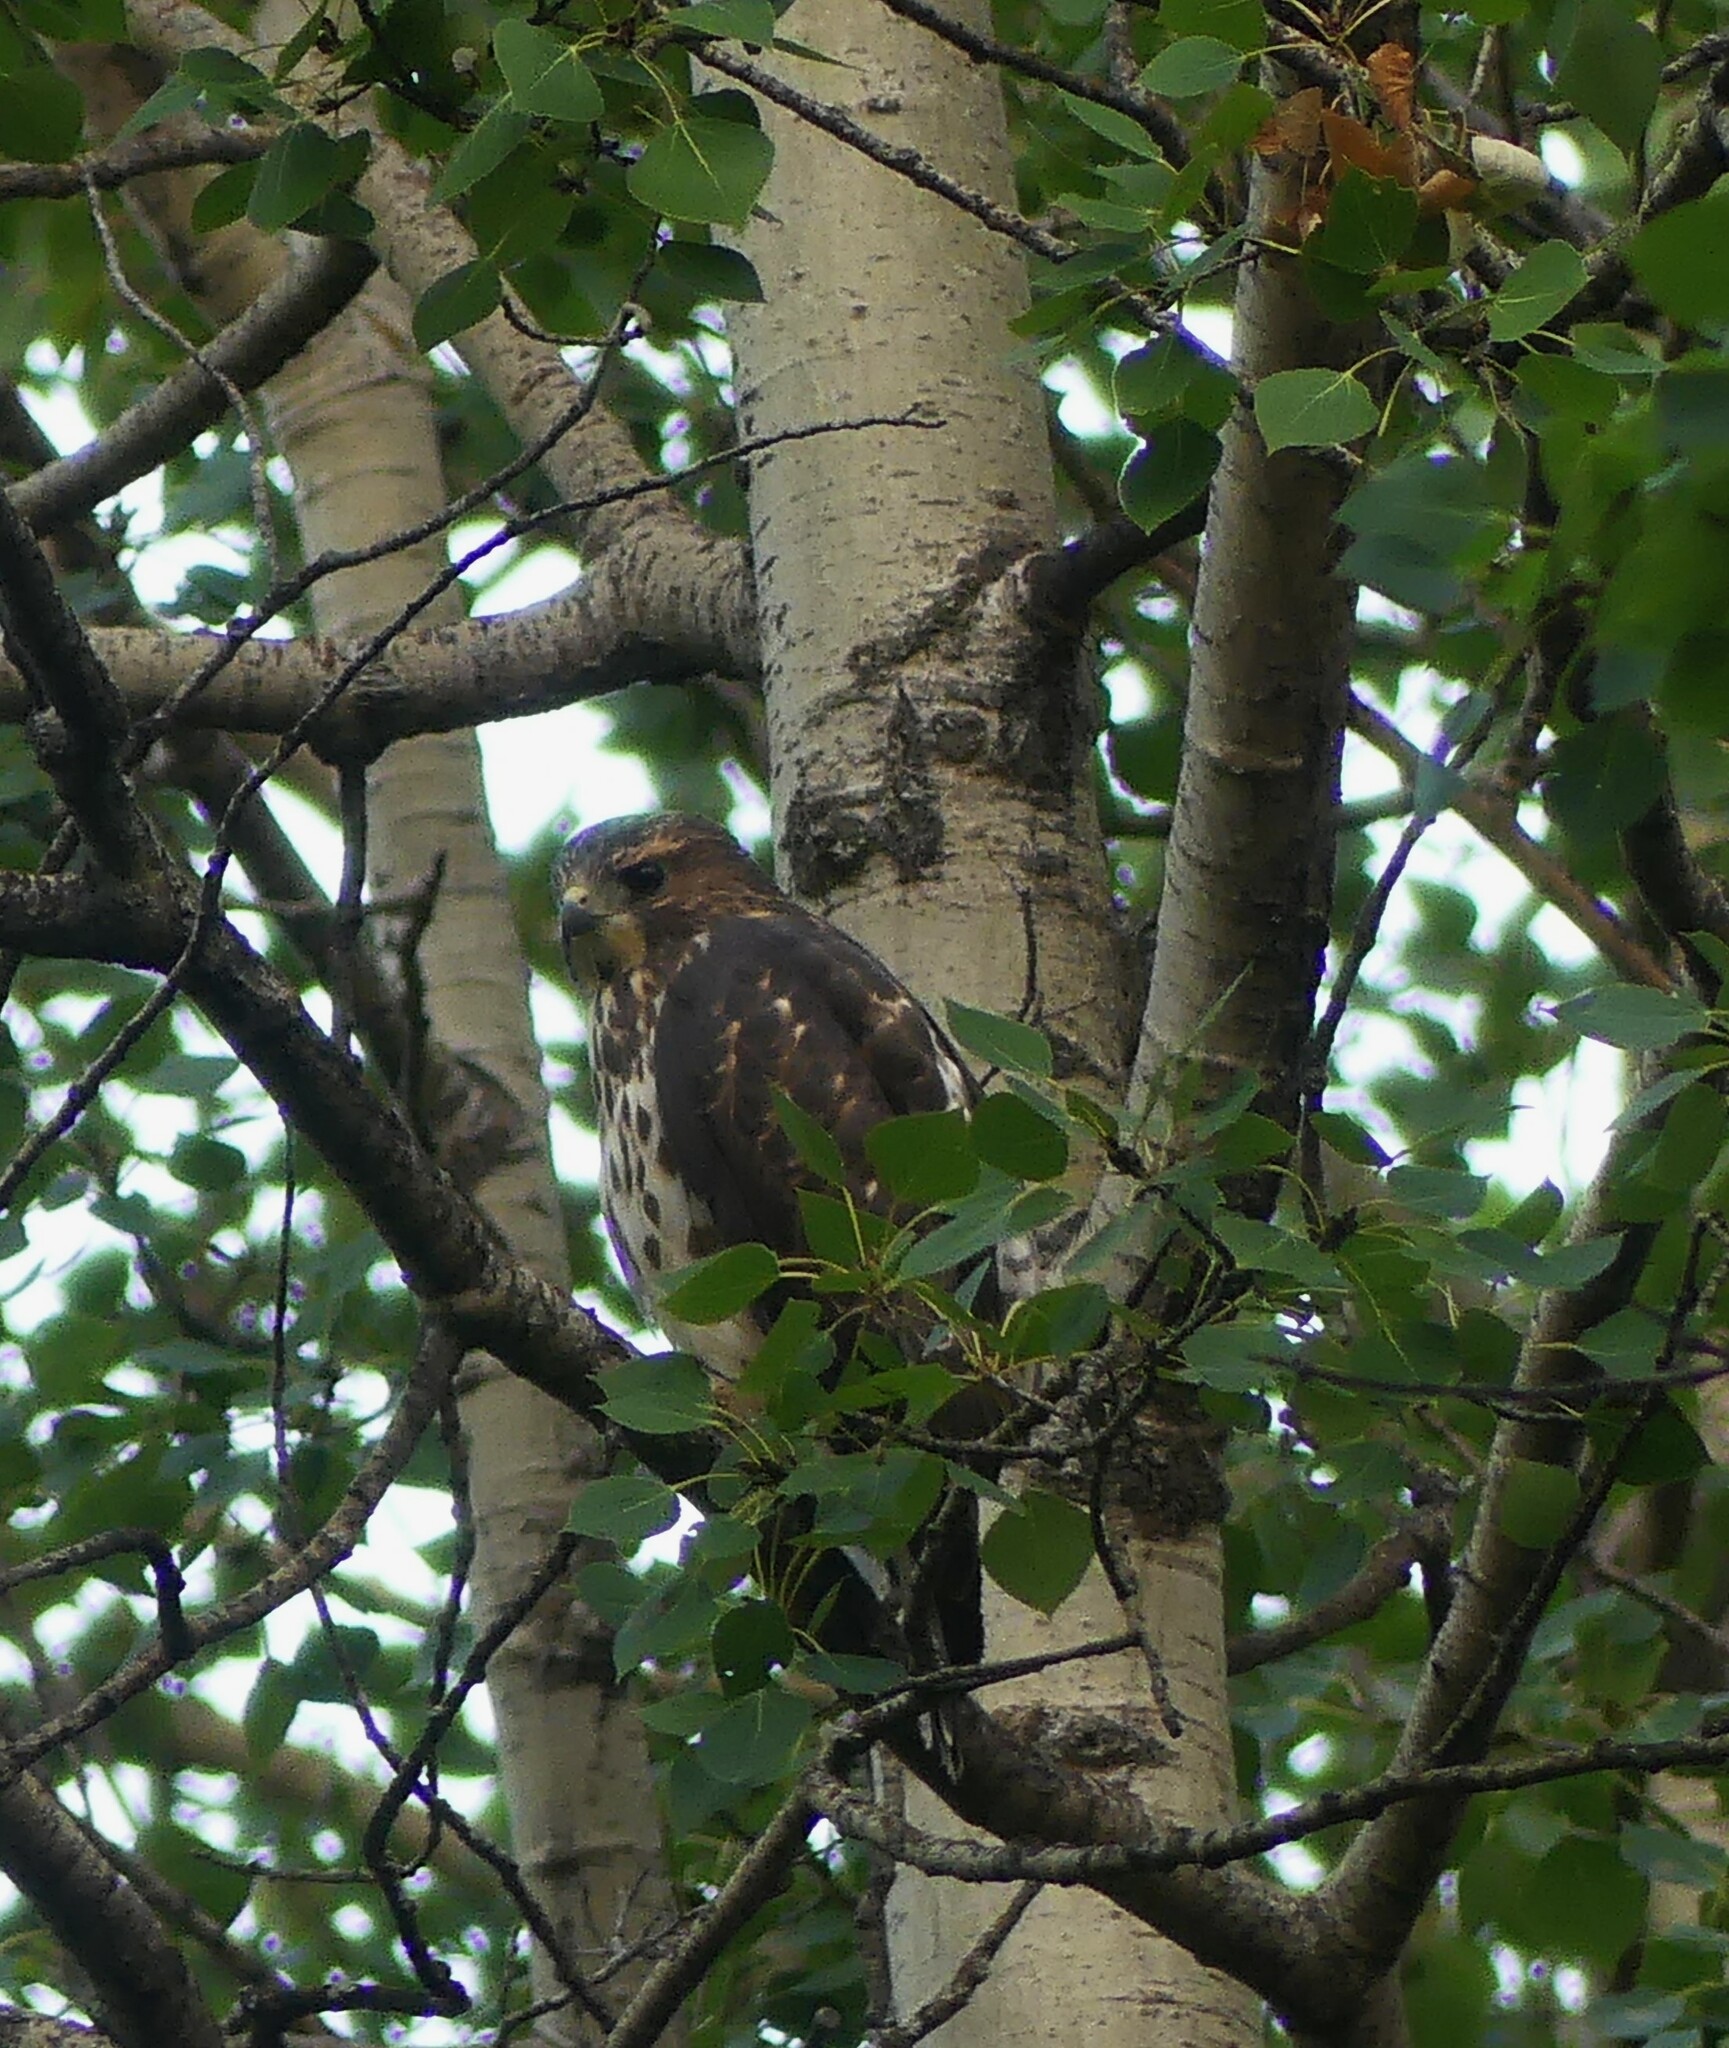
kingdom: Animalia
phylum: Chordata
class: Aves
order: Accipitriformes
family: Accipitridae
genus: Buteo
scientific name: Buteo platypterus
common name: Broad-winged hawk
